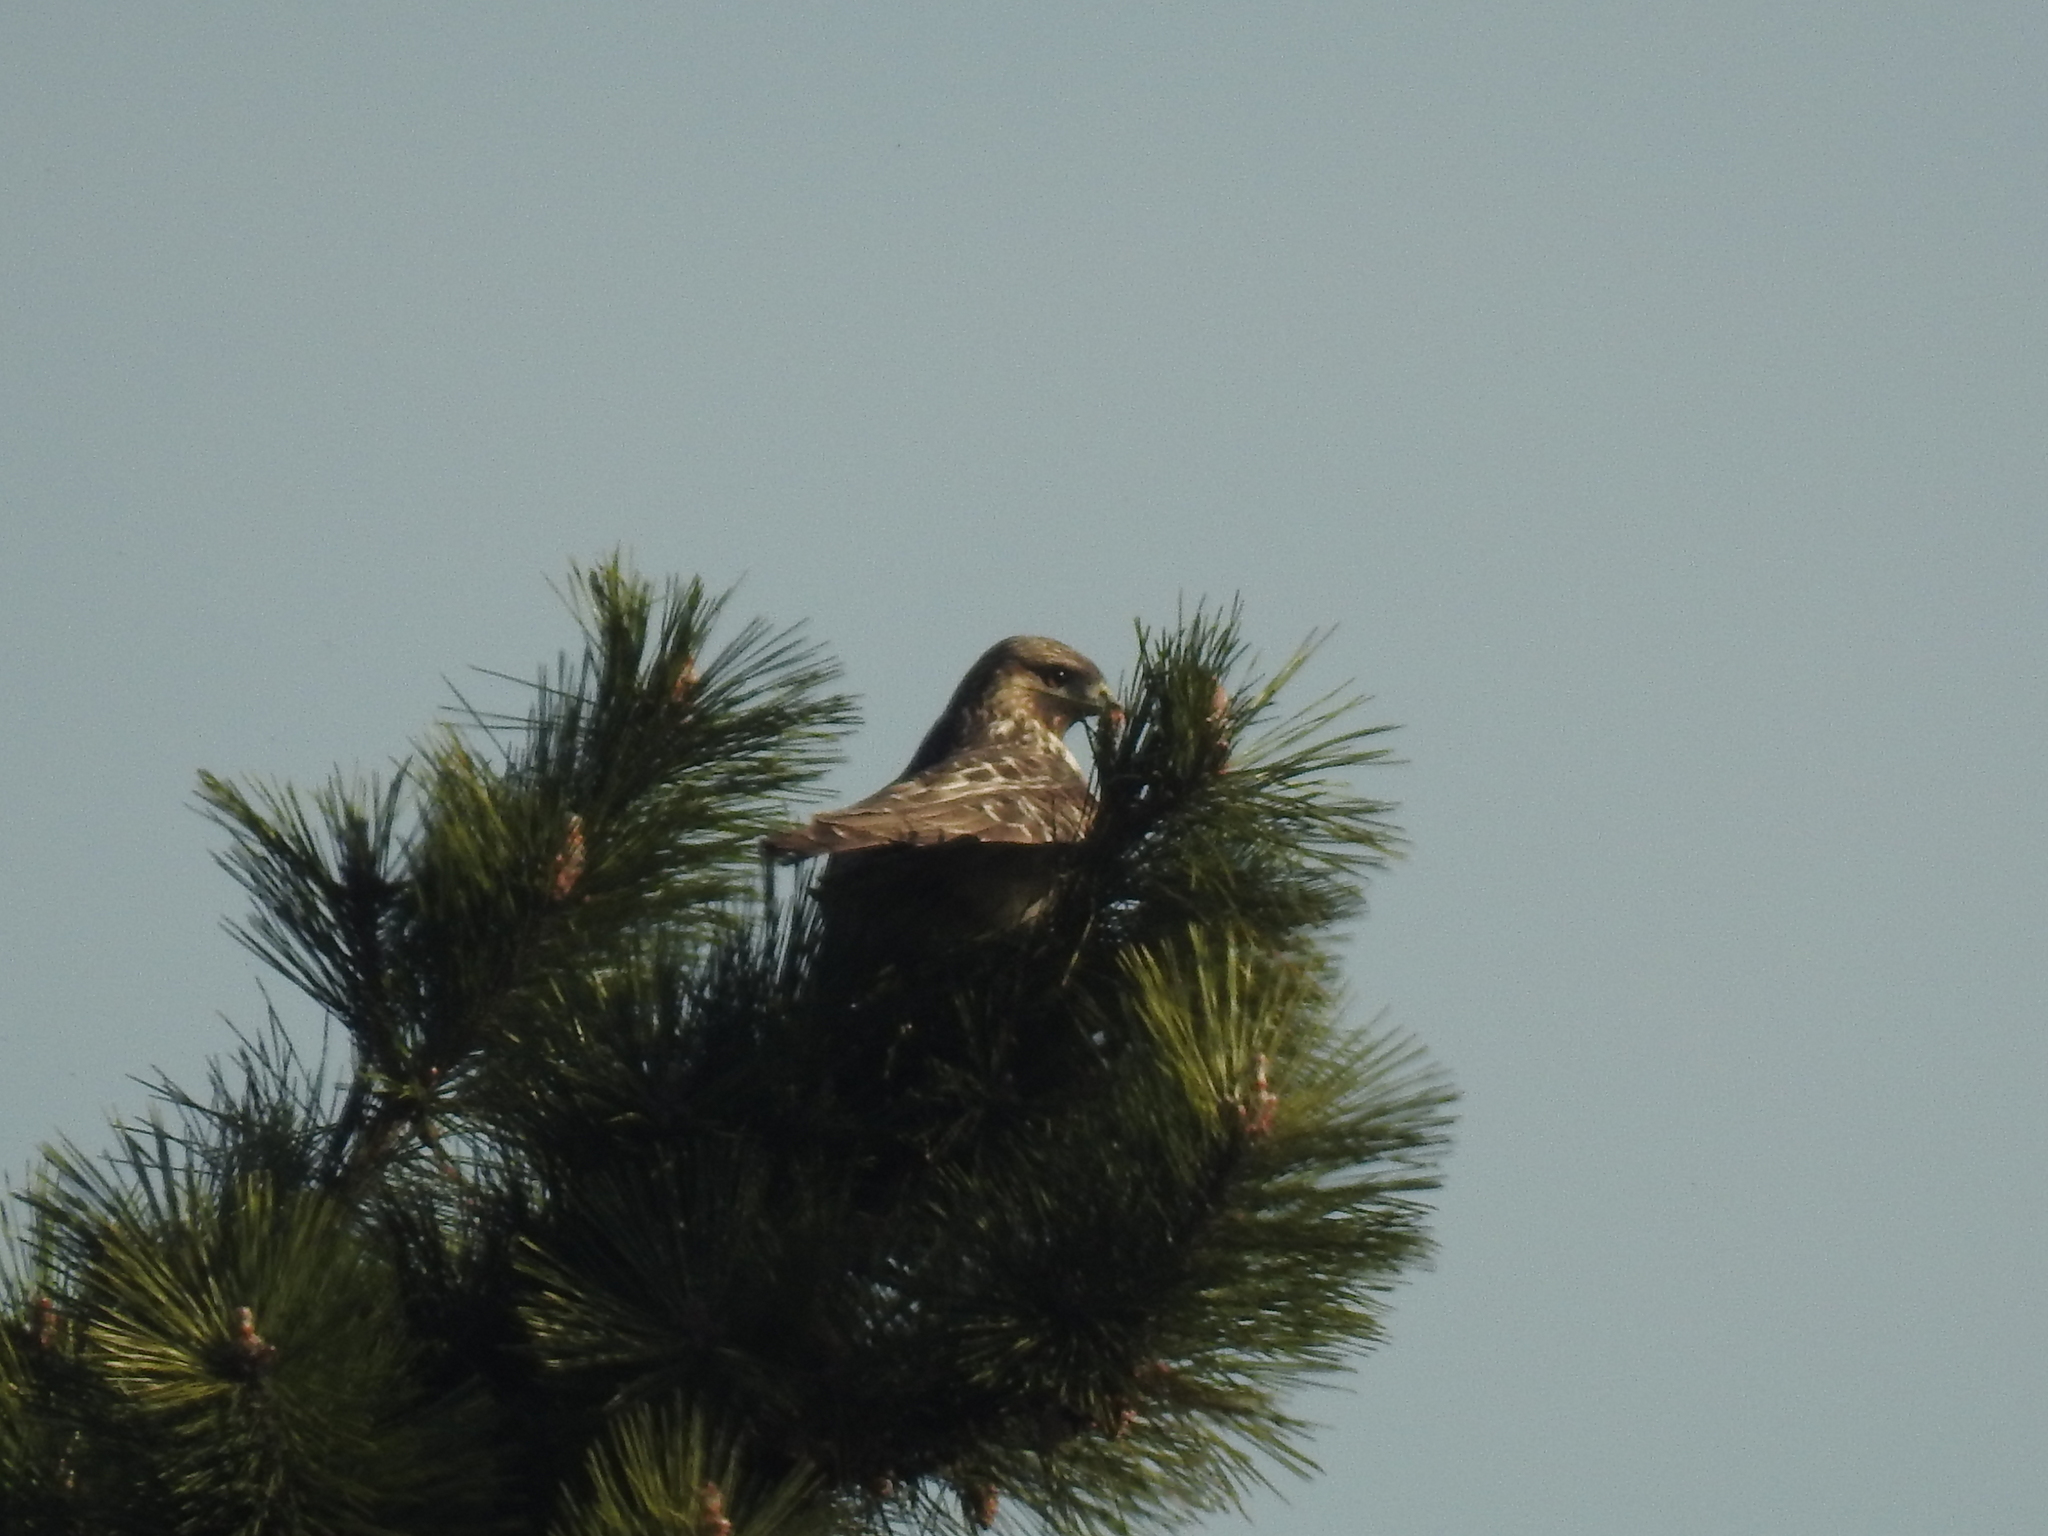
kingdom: Animalia
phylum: Chordata
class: Aves
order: Accipitriformes
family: Accipitridae
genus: Buteo
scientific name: Buteo japonicus
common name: Eastern buzzard
